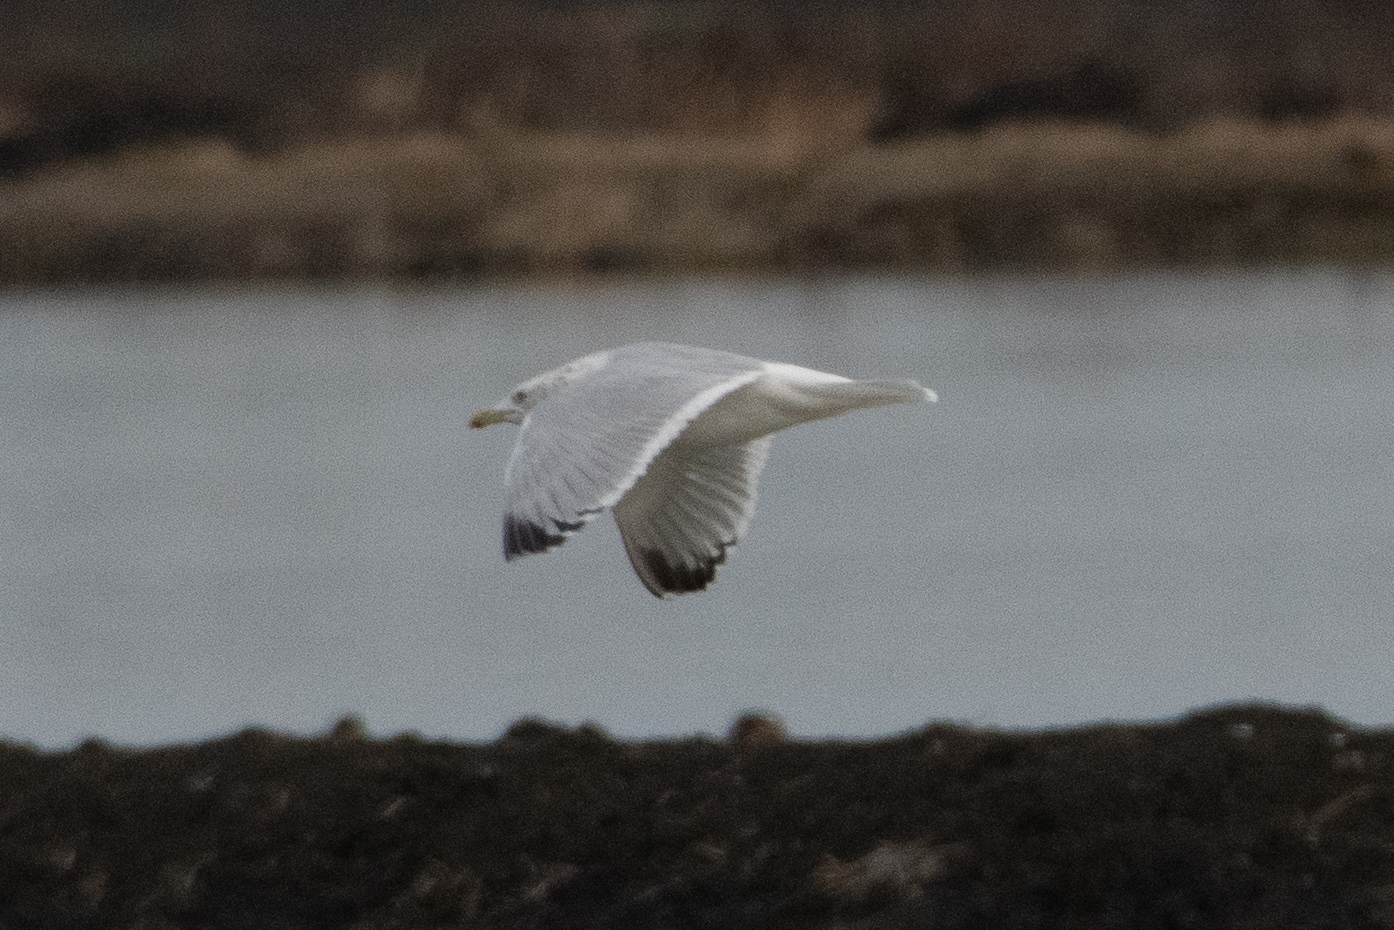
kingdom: Animalia
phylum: Chordata
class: Aves
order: Charadriiformes
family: Laridae
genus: Larus
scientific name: Larus argentatus
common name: Herring gull
